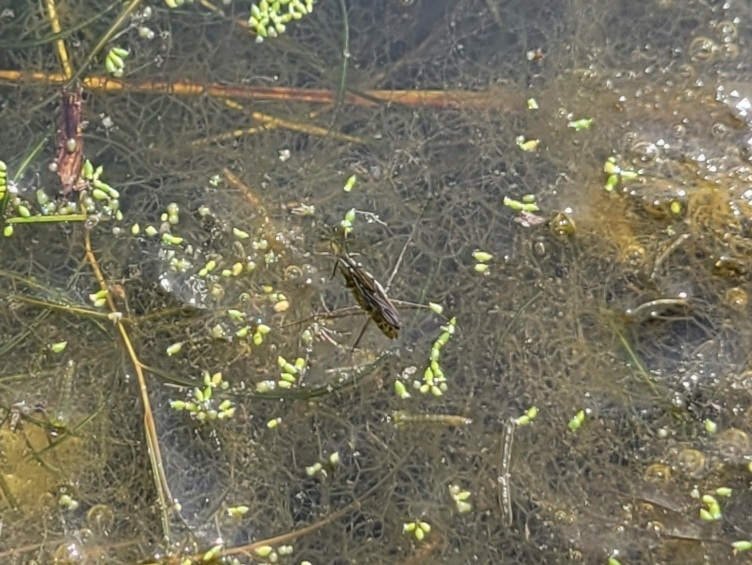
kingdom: Animalia
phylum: Arthropoda
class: Insecta
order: Hemiptera
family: Gerridae
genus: Gerris
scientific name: Gerris
